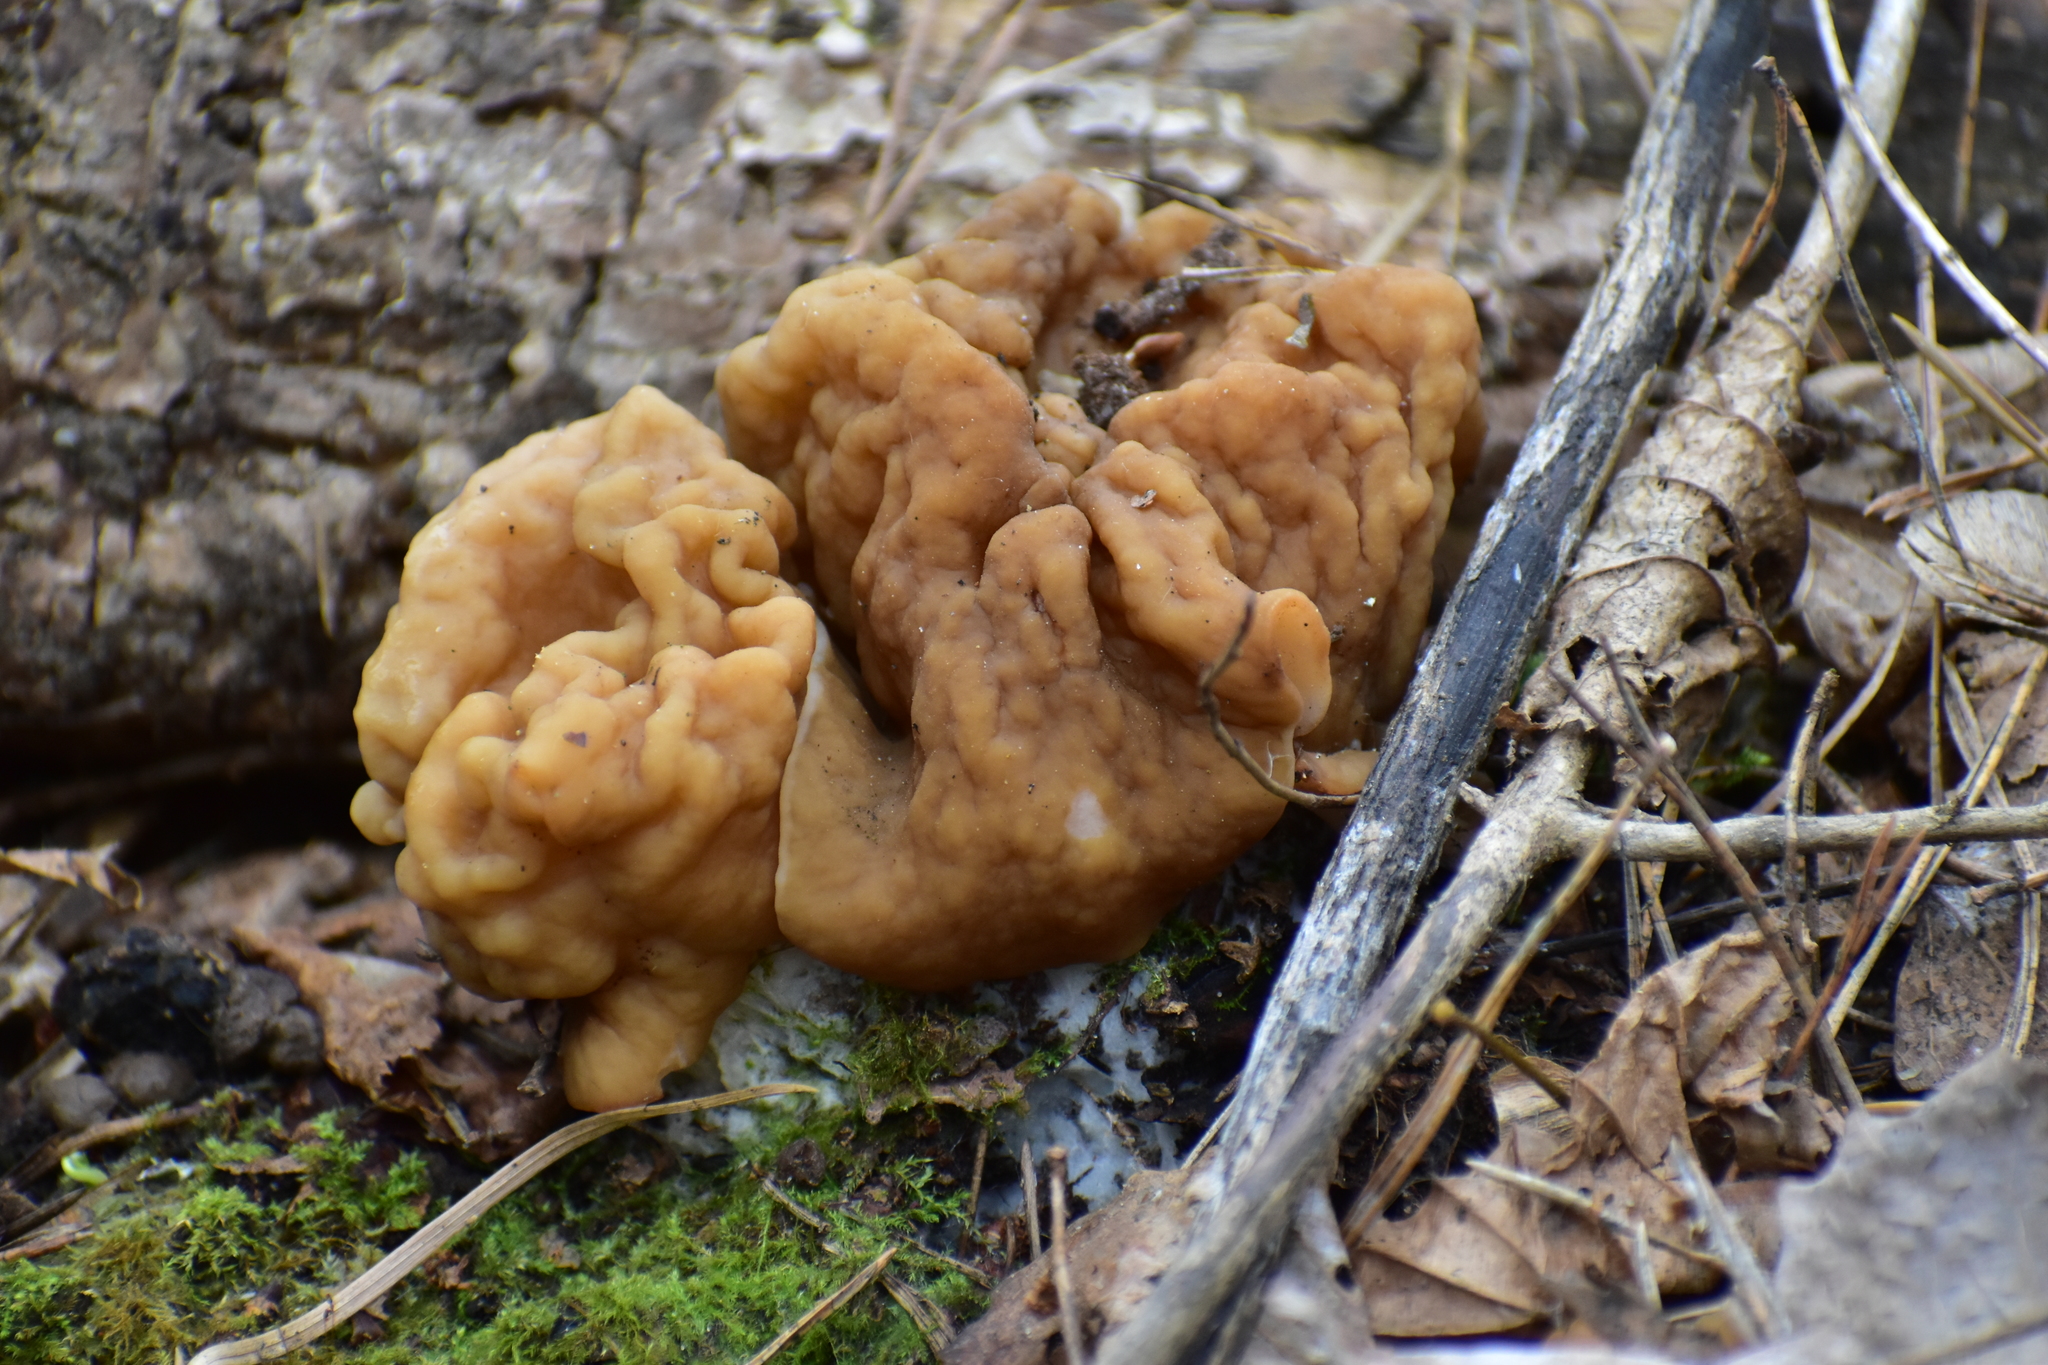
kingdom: Fungi
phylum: Ascomycota
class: Pezizomycetes
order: Pezizales
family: Discinaceae
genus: Gyromitra
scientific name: Gyromitra gigas
